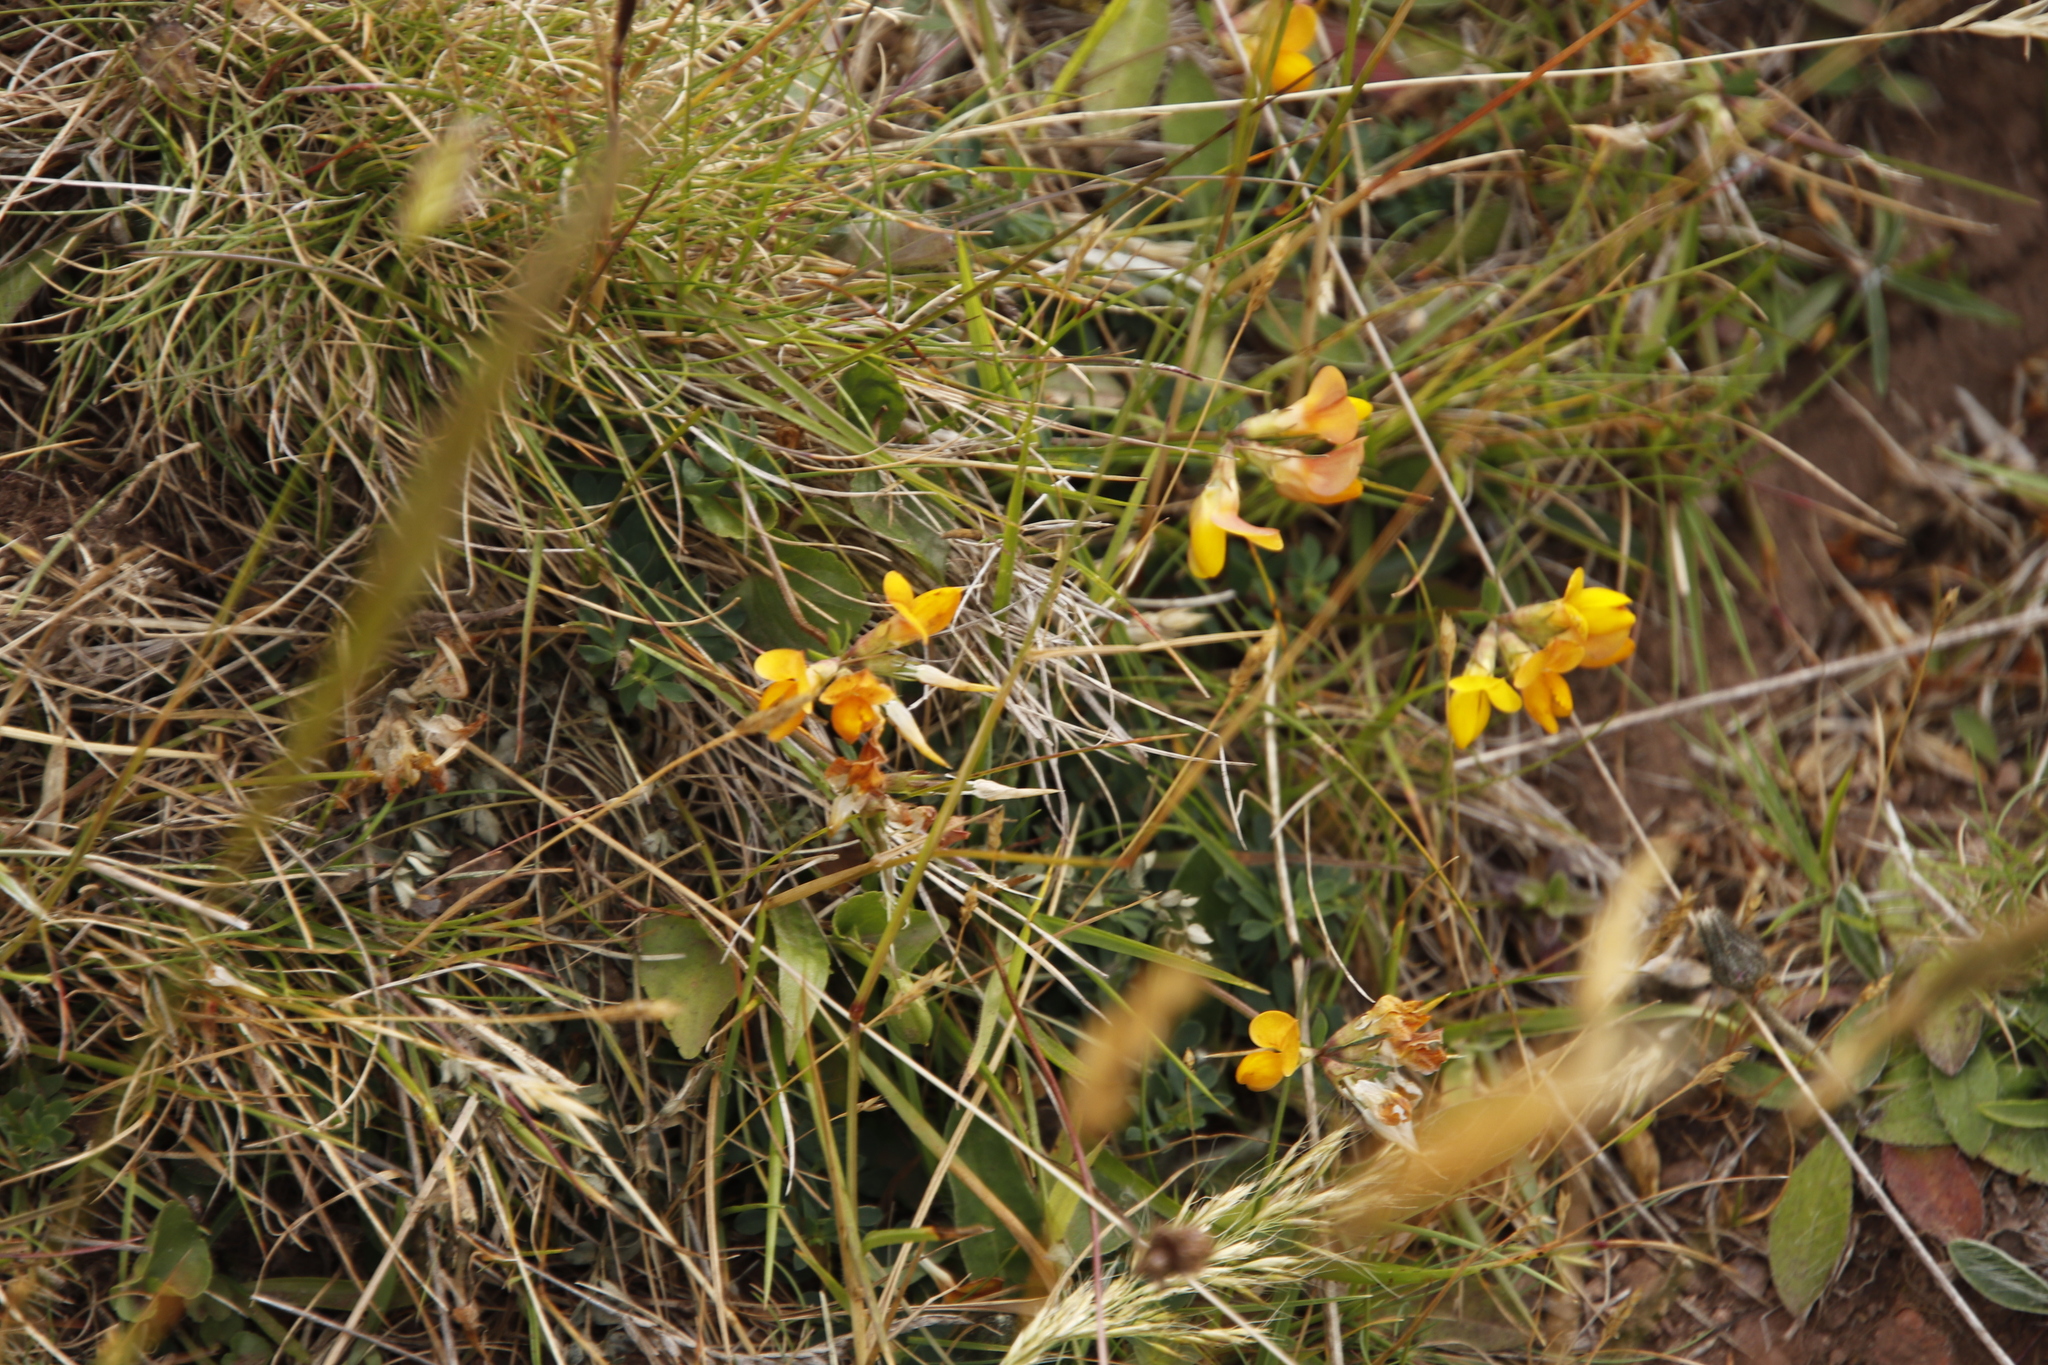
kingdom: Plantae
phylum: Tracheophyta
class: Magnoliopsida
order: Fabales
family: Fabaceae
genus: Lotus
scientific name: Lotus corniculatus
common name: Common bird's-foot-trefoil
